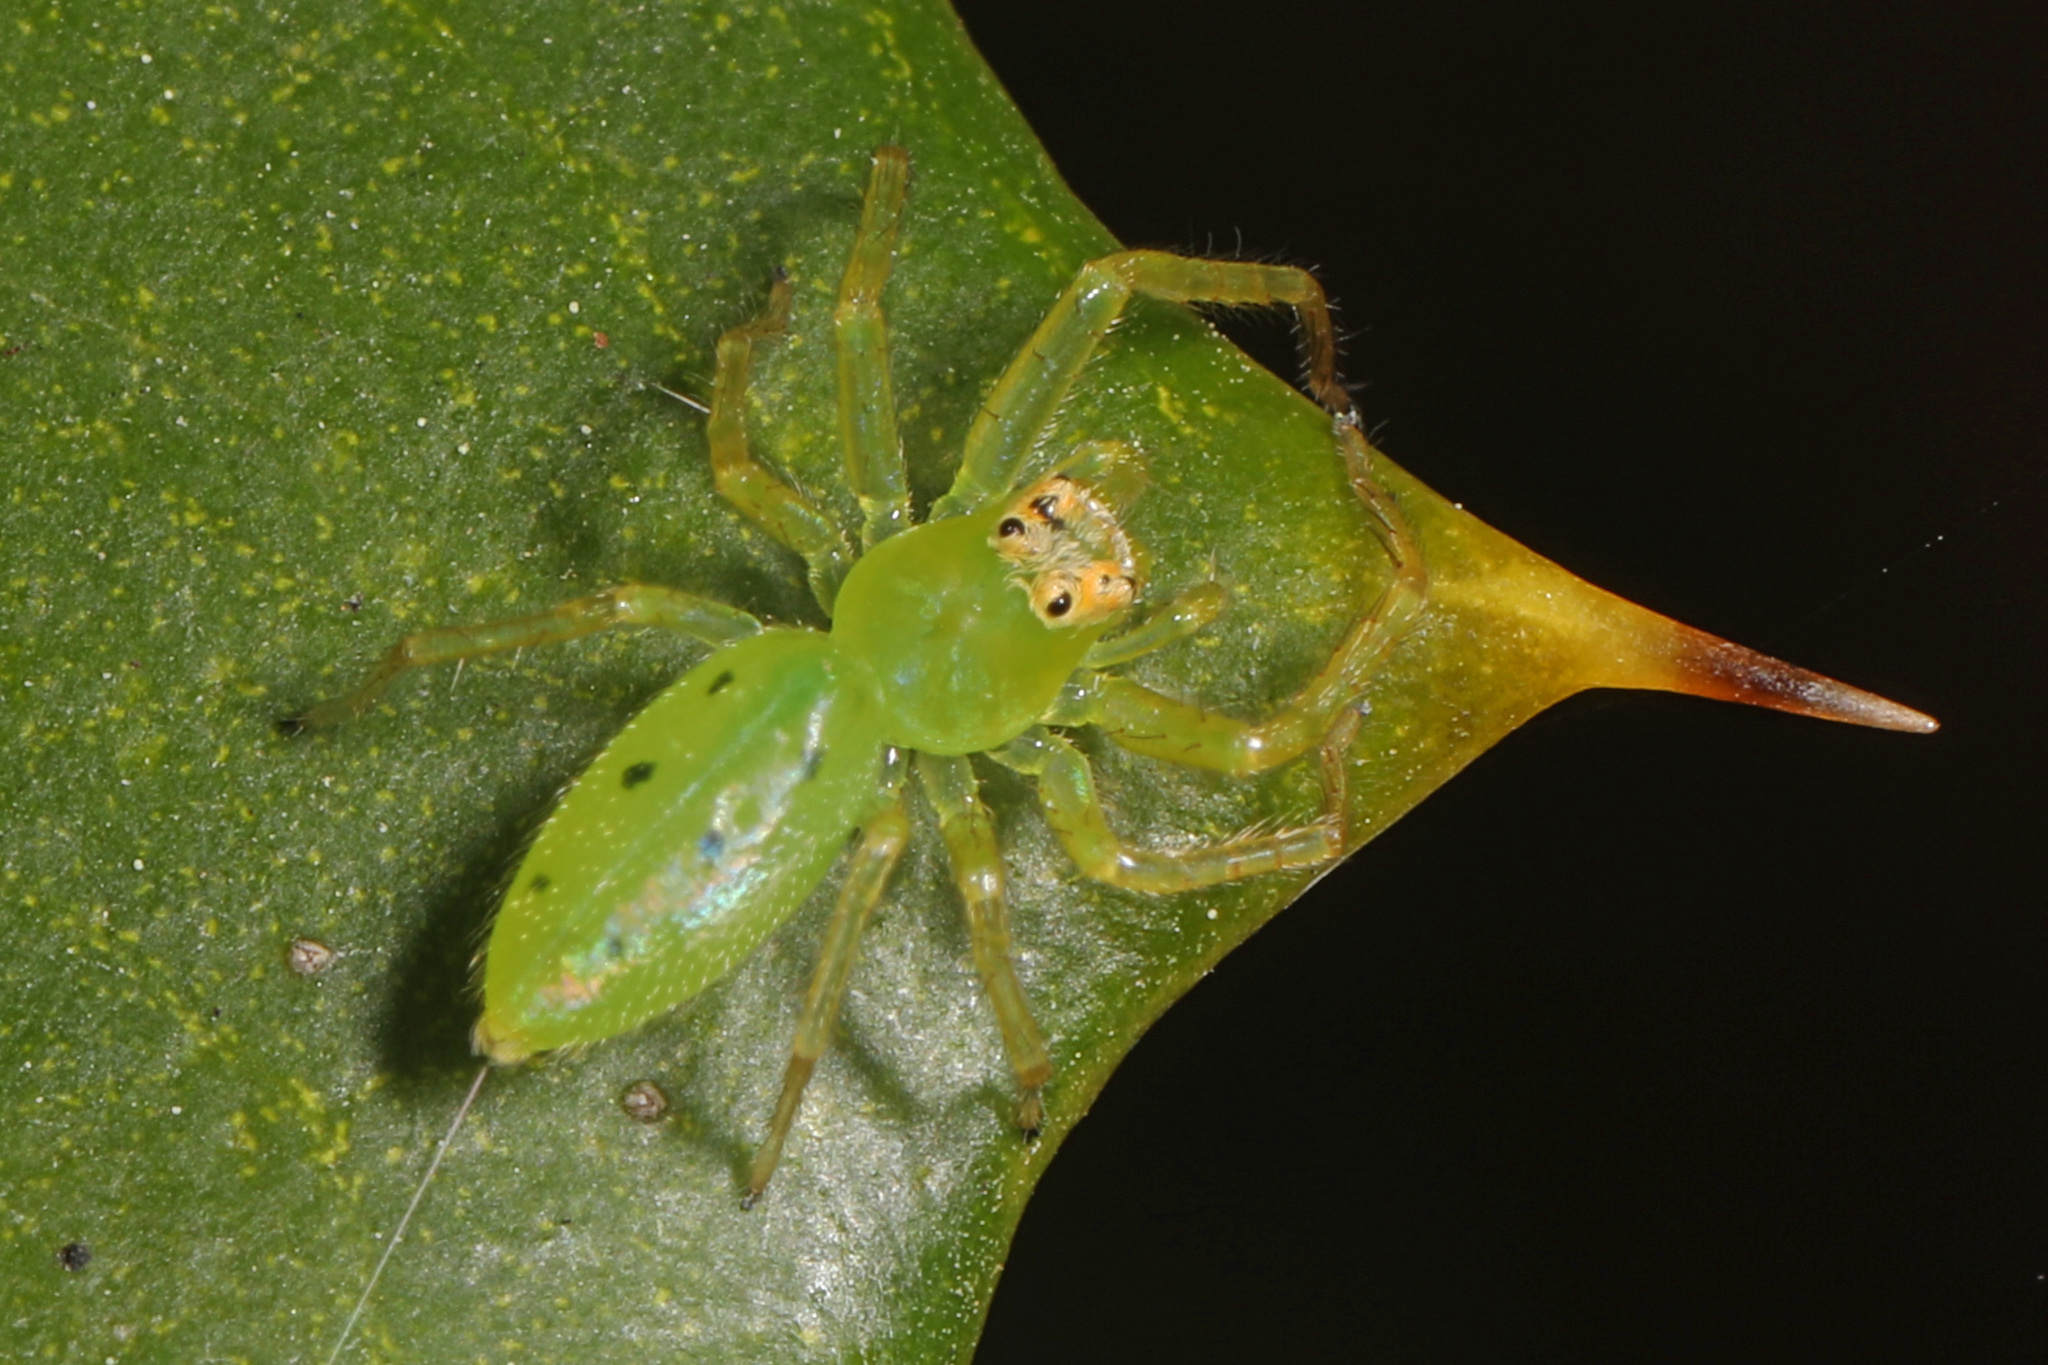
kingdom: Animalia
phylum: Arthropoda
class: Arachnida
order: Araneae
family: Salticidae
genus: Lyssomanes
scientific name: Lyssomanes viridis
